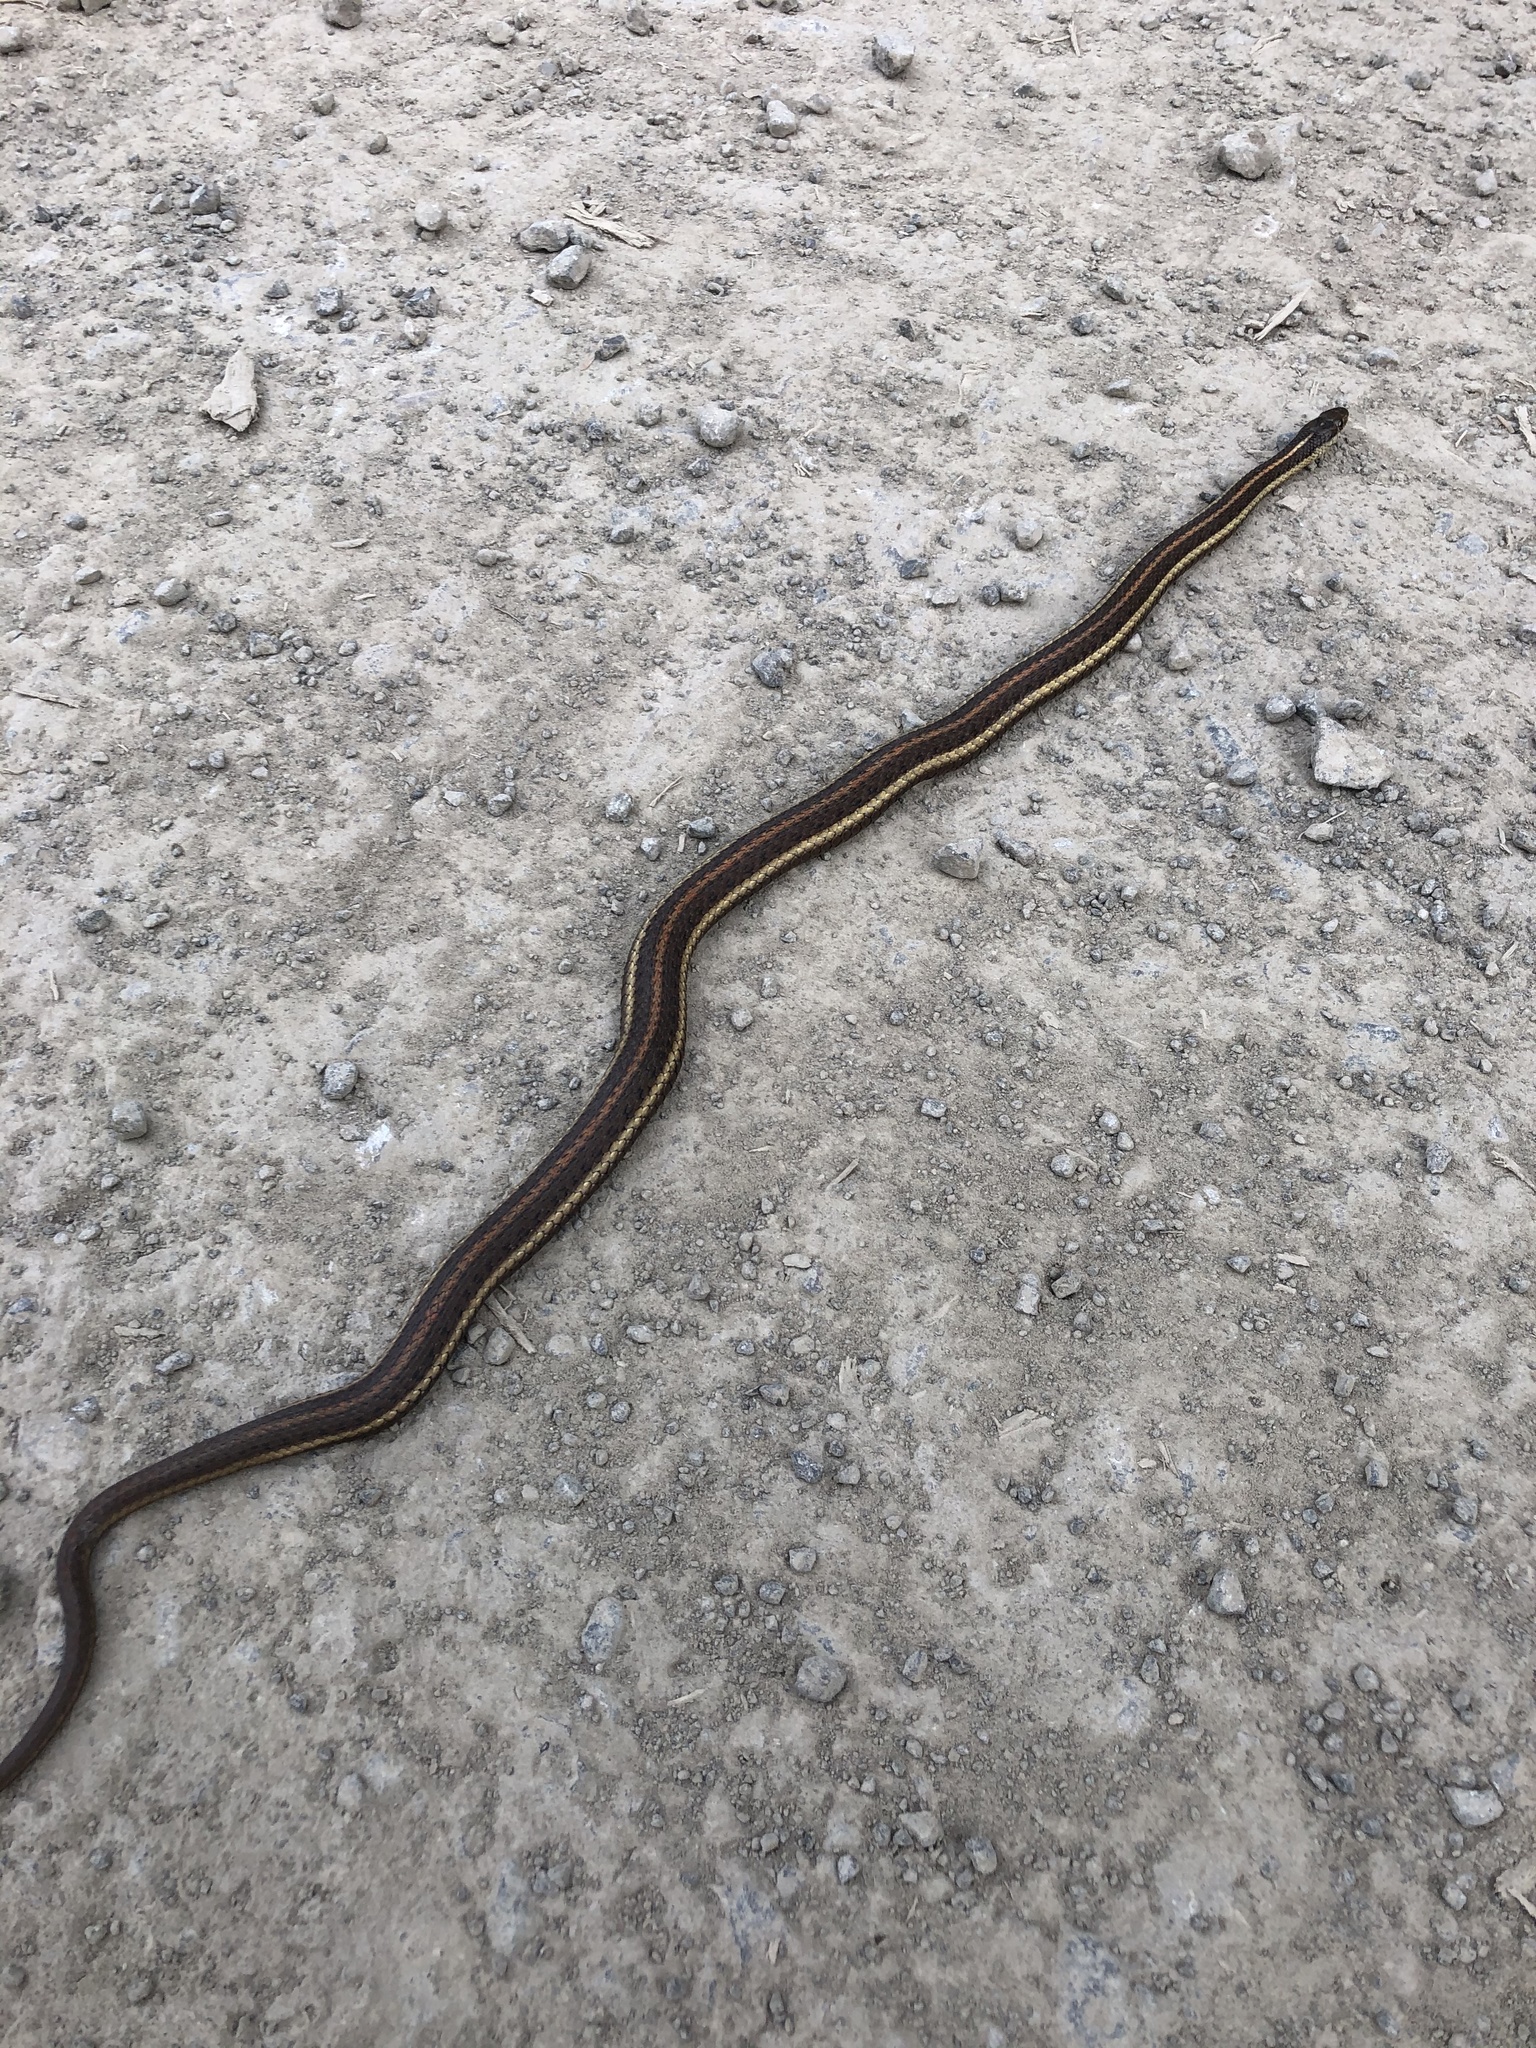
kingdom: Animalia
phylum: Chordata
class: Squamata
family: Colubridae
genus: Thamnophis
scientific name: Thamnophis ordinoides
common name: Northwestern garter snake
